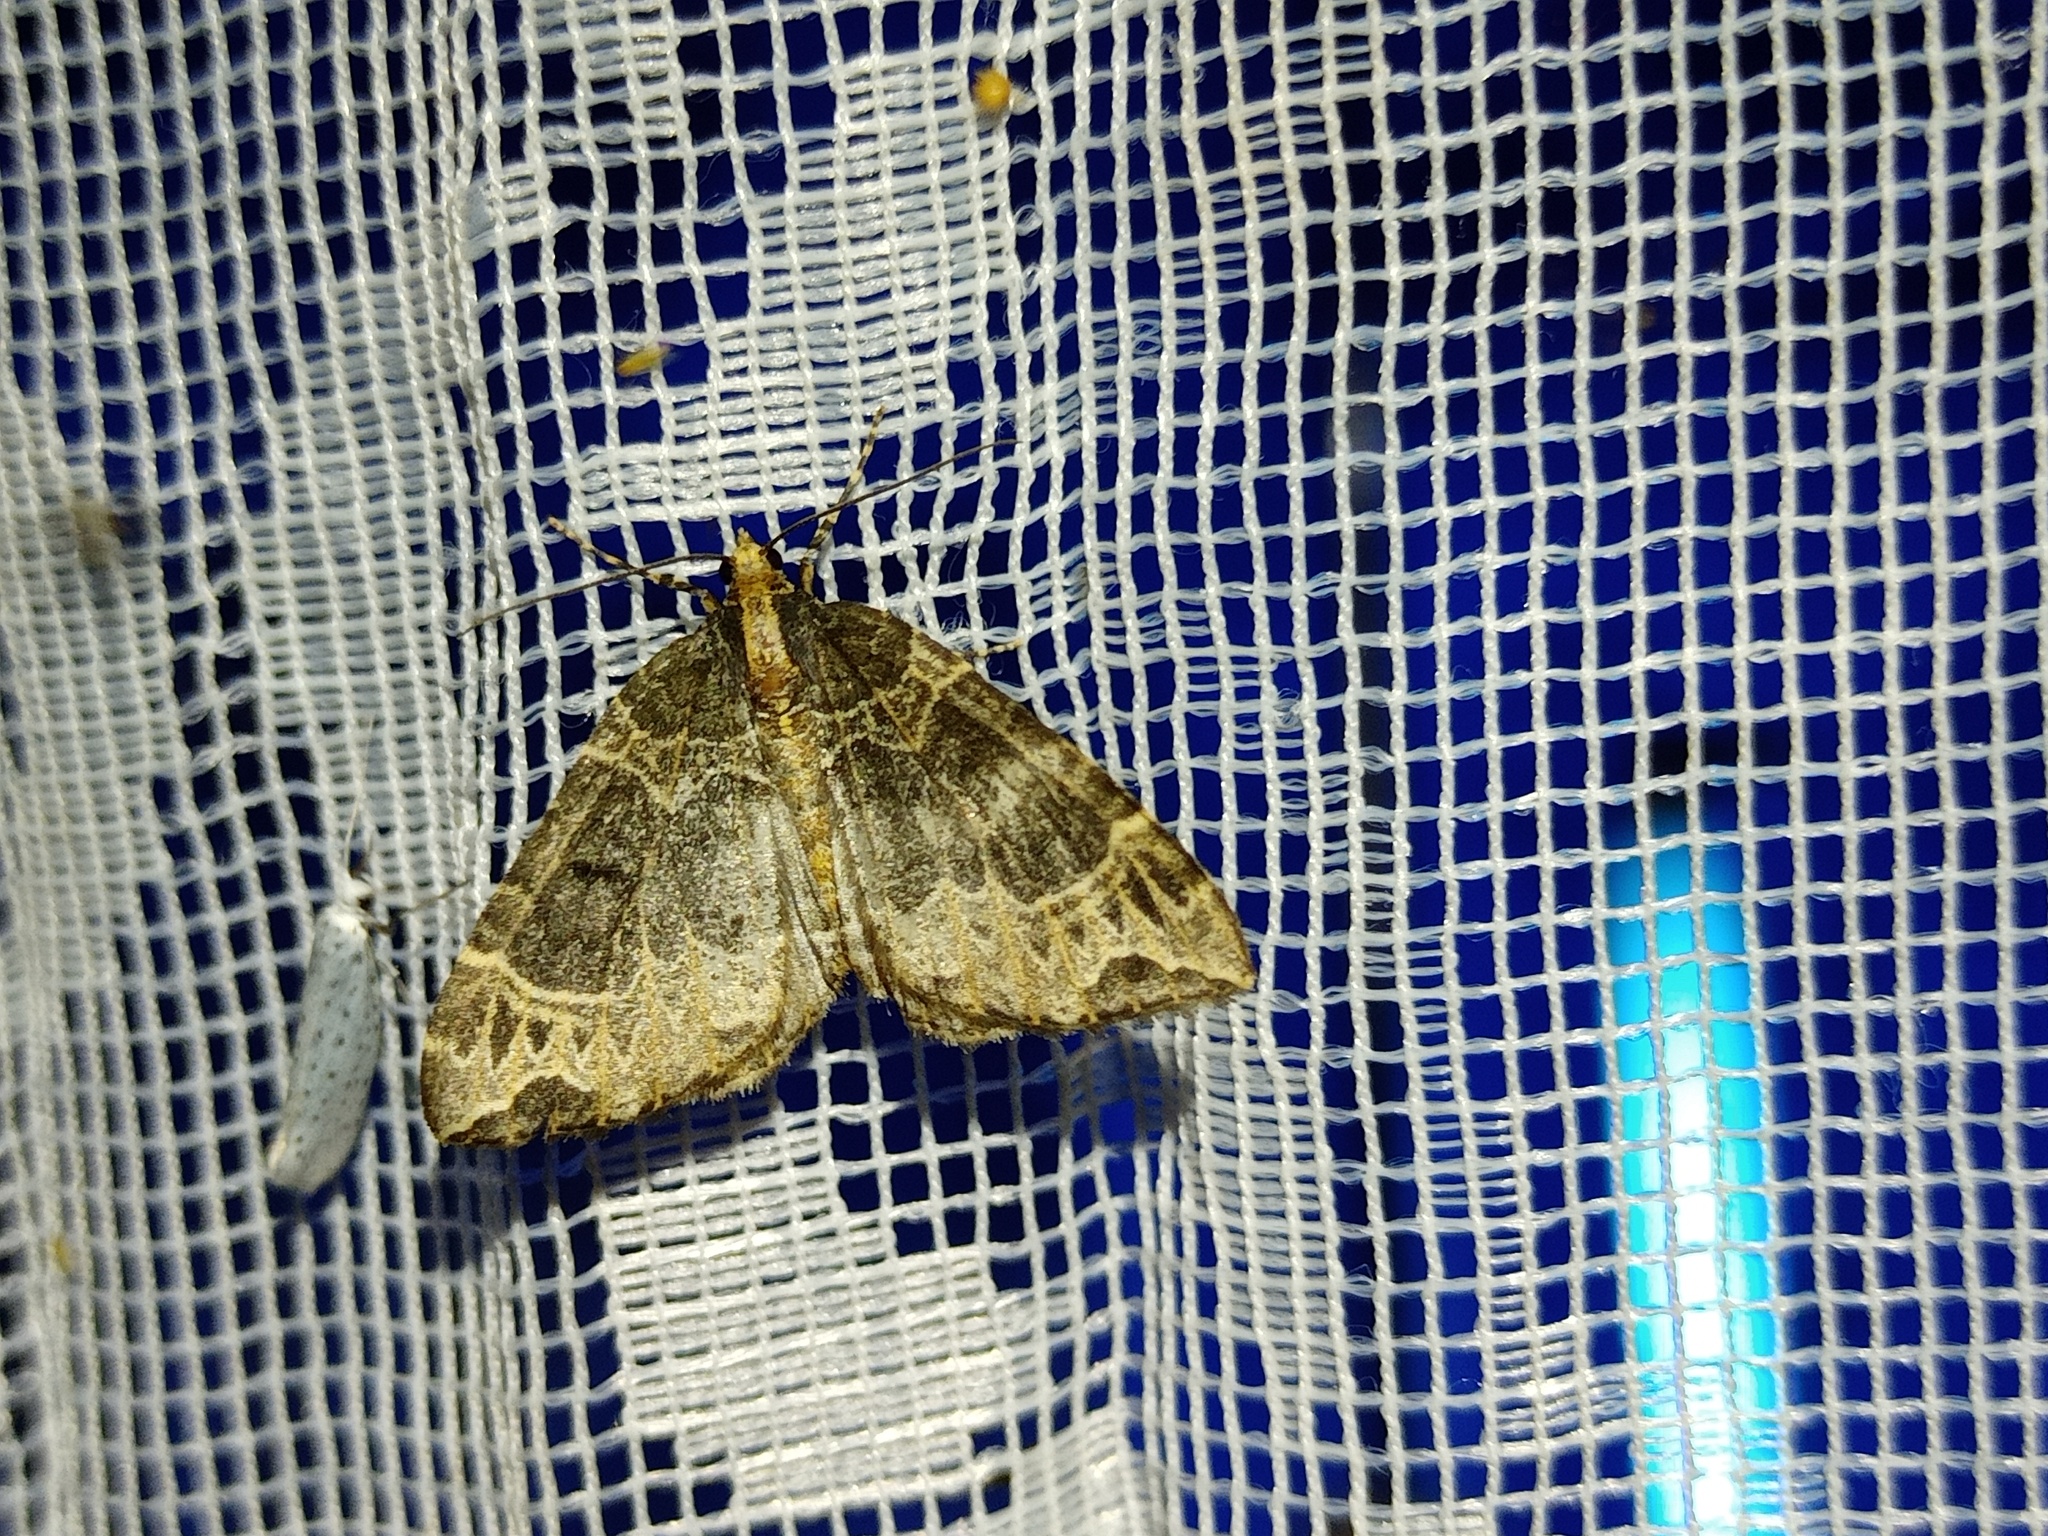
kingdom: Animalia
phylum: Arthropoda
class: Insecta
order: Lepidoptera
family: Geometridae
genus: Ecliptopera
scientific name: Ecliptopera silaceata
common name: Small phoenix
